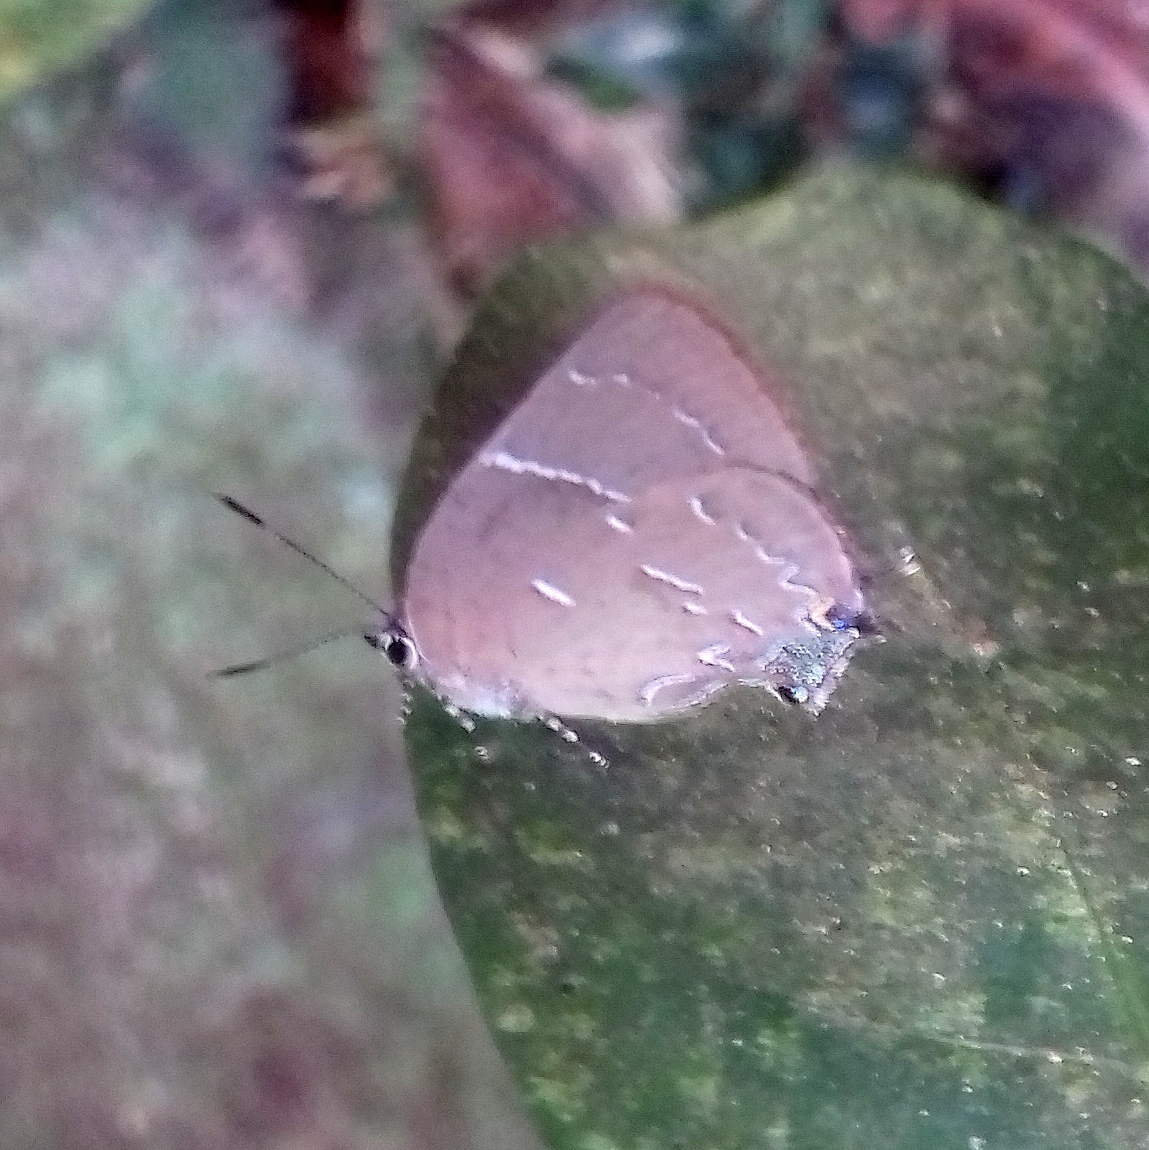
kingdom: Animalia
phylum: Arthropoda
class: Insecta
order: Lepidoptera
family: Lycaenidae
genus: Janthecla
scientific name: Janthecla
